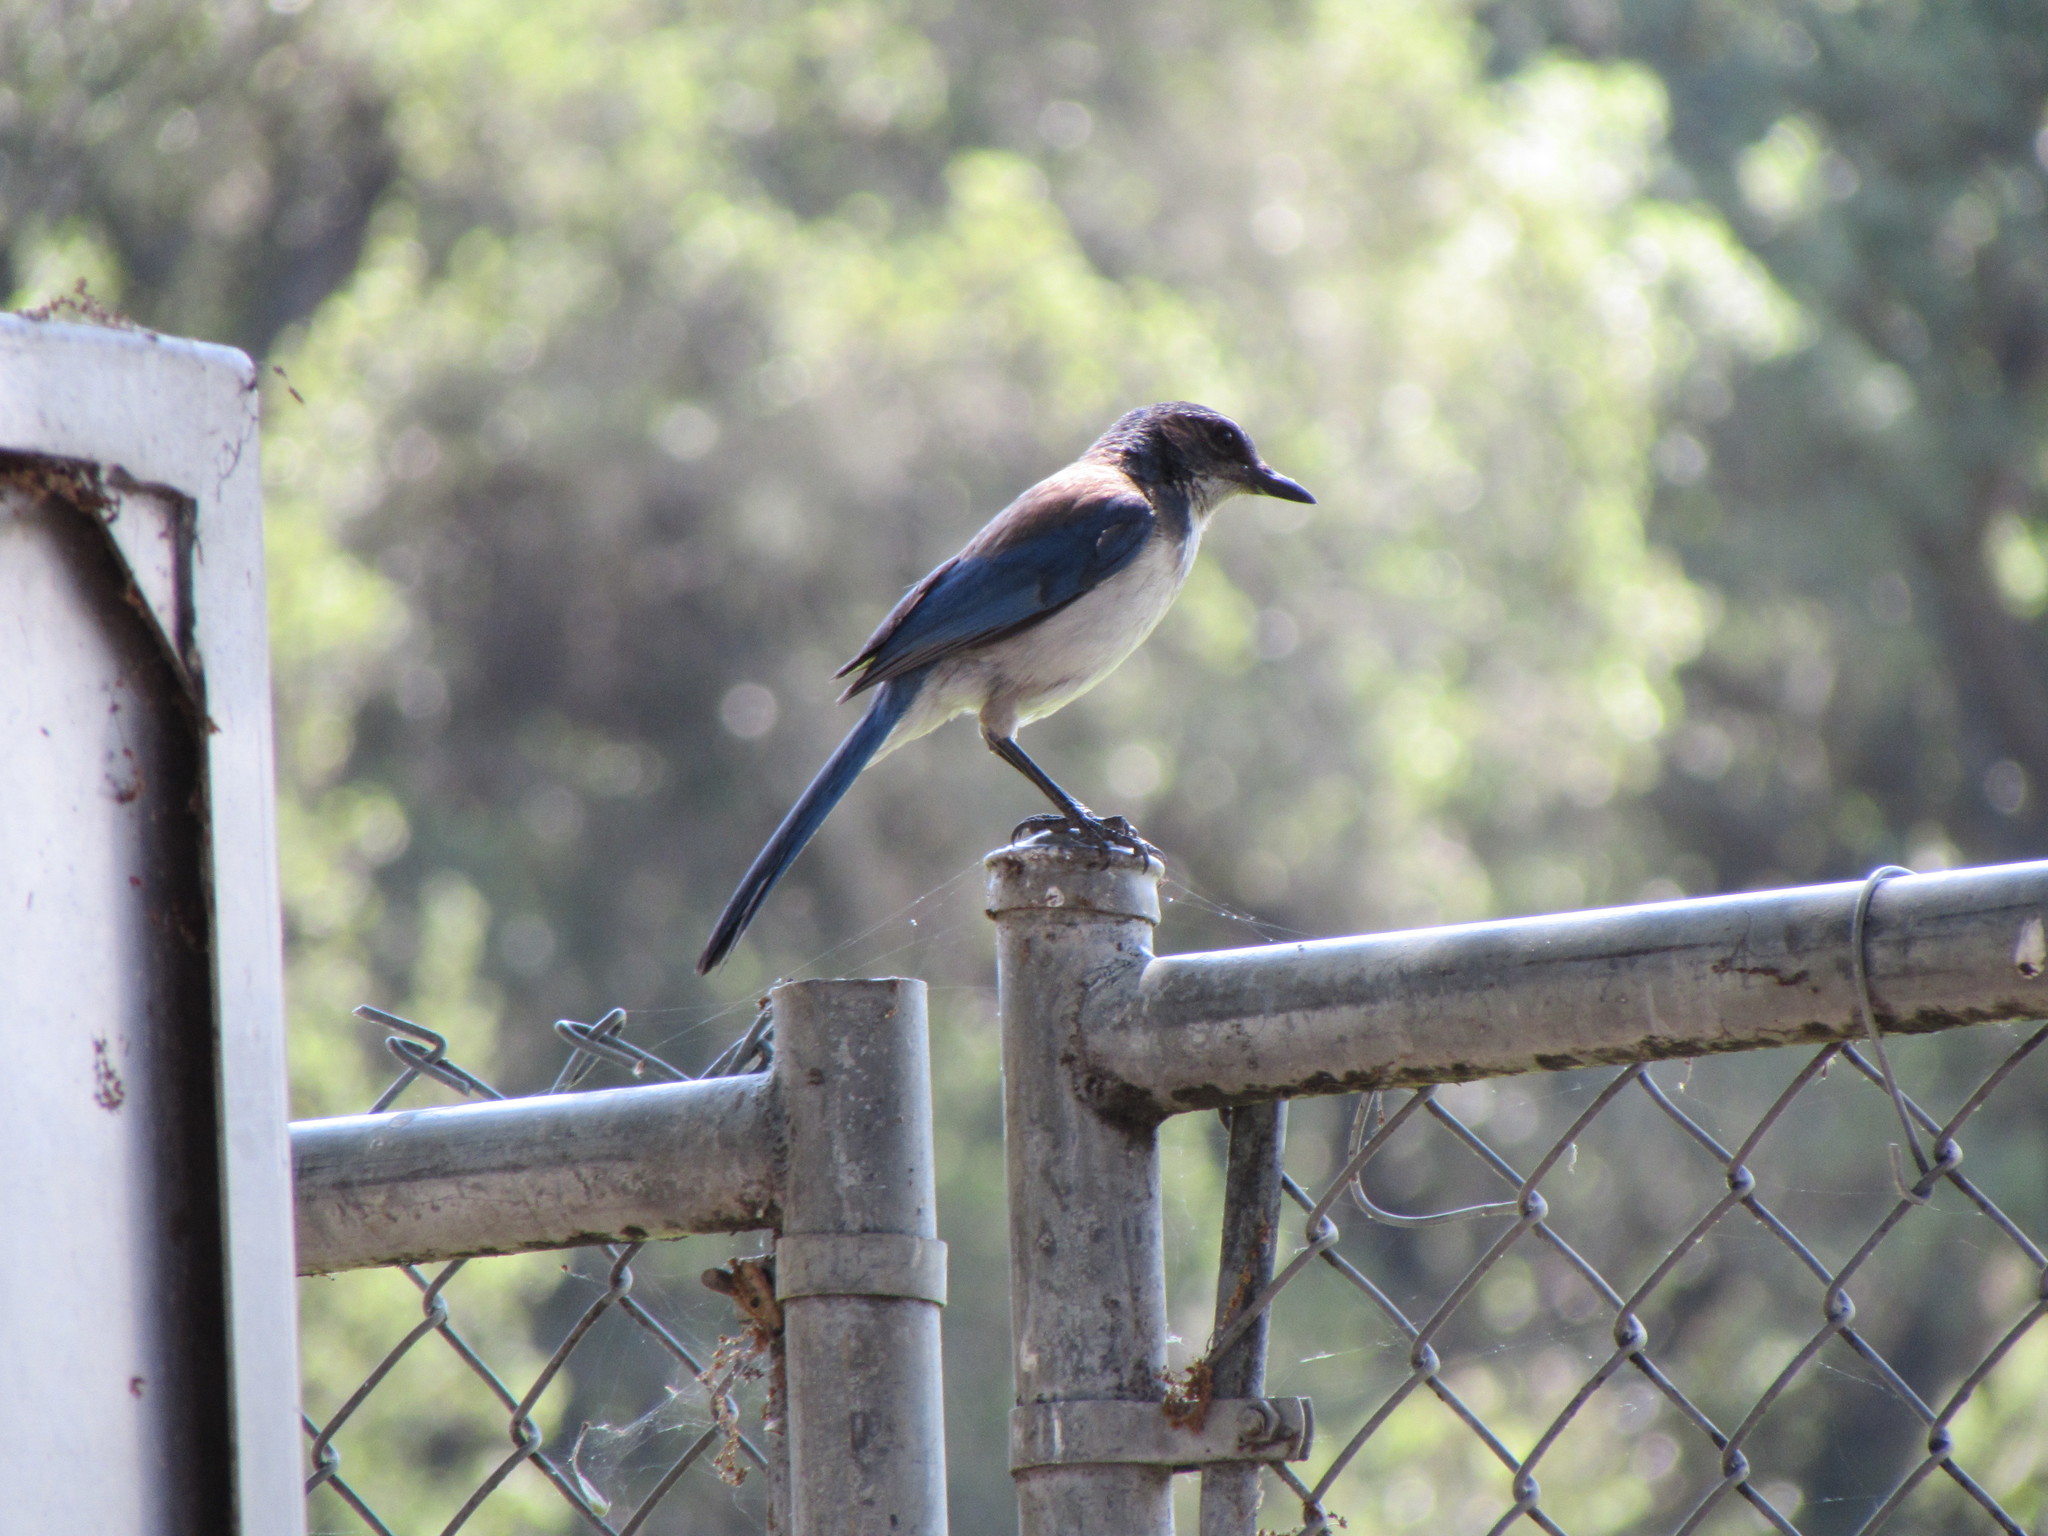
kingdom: Animalia
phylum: Chordata
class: Aves
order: Passeriformes
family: Corvidae
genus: Aphelocoma
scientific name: Aphelocoma californica
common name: California scrub-jay
